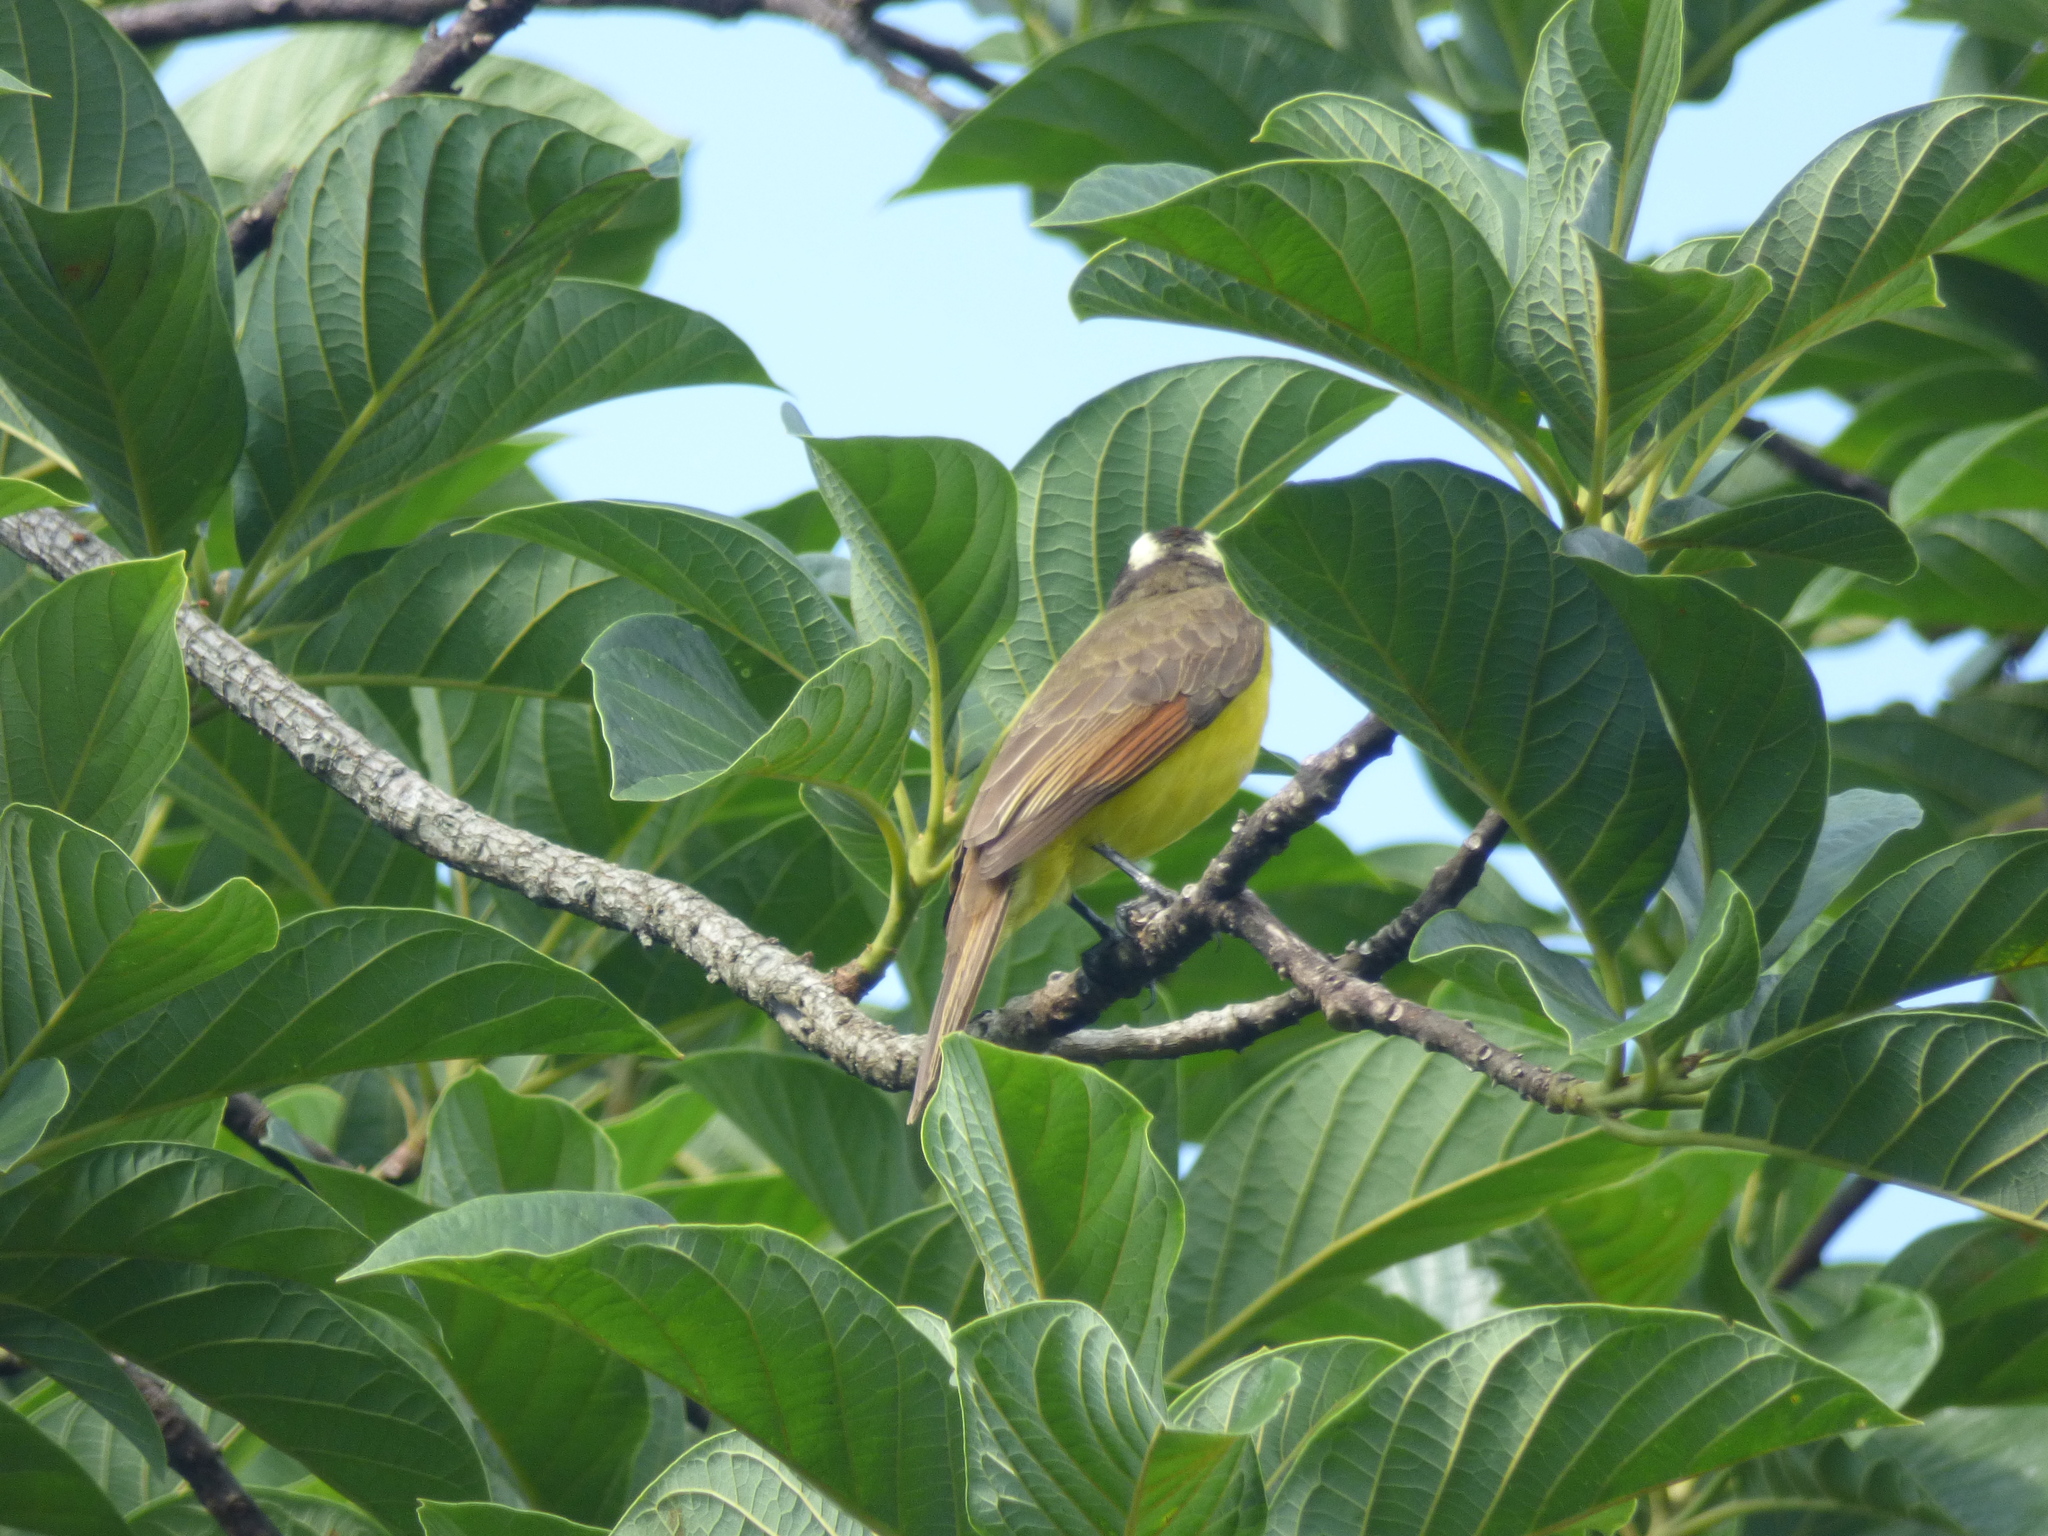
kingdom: Animalia
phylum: Chordata
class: Aves
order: Passeriformes
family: Tyrannidae
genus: Myiozetetes
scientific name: Myiozetetes cayanensis
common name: Rusty-margined flycatcher
